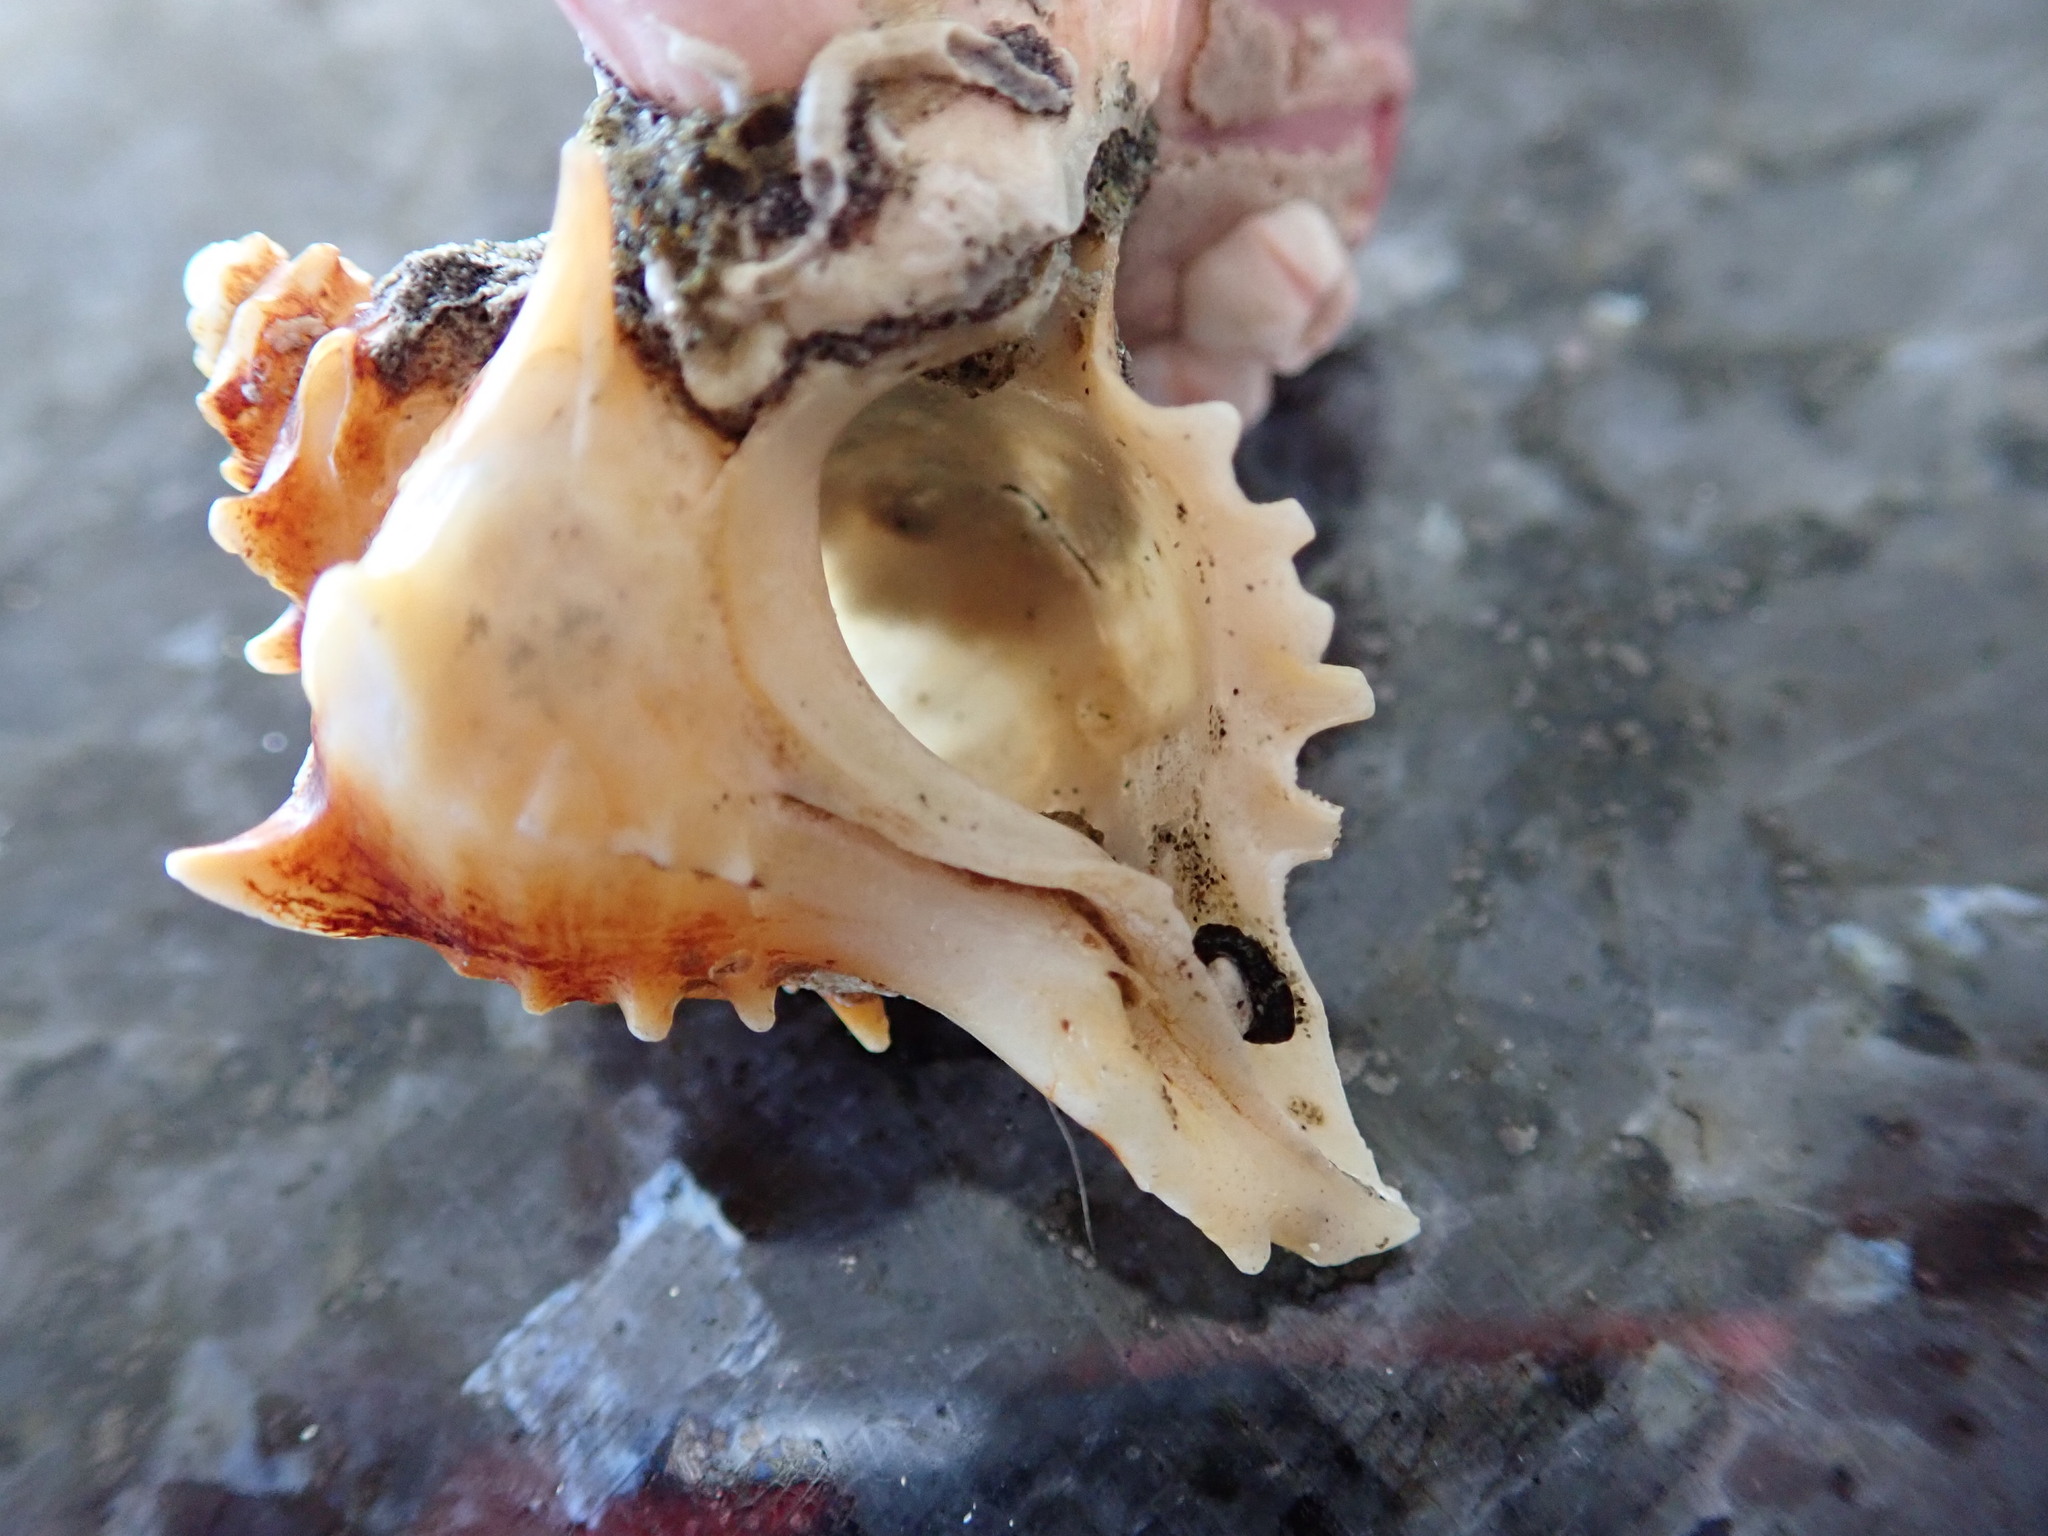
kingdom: Animalia
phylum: Mollusca
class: Gastropoda
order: Neogastropoda
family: Muricidae
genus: Poirieria
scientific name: Poirieria zelandica
